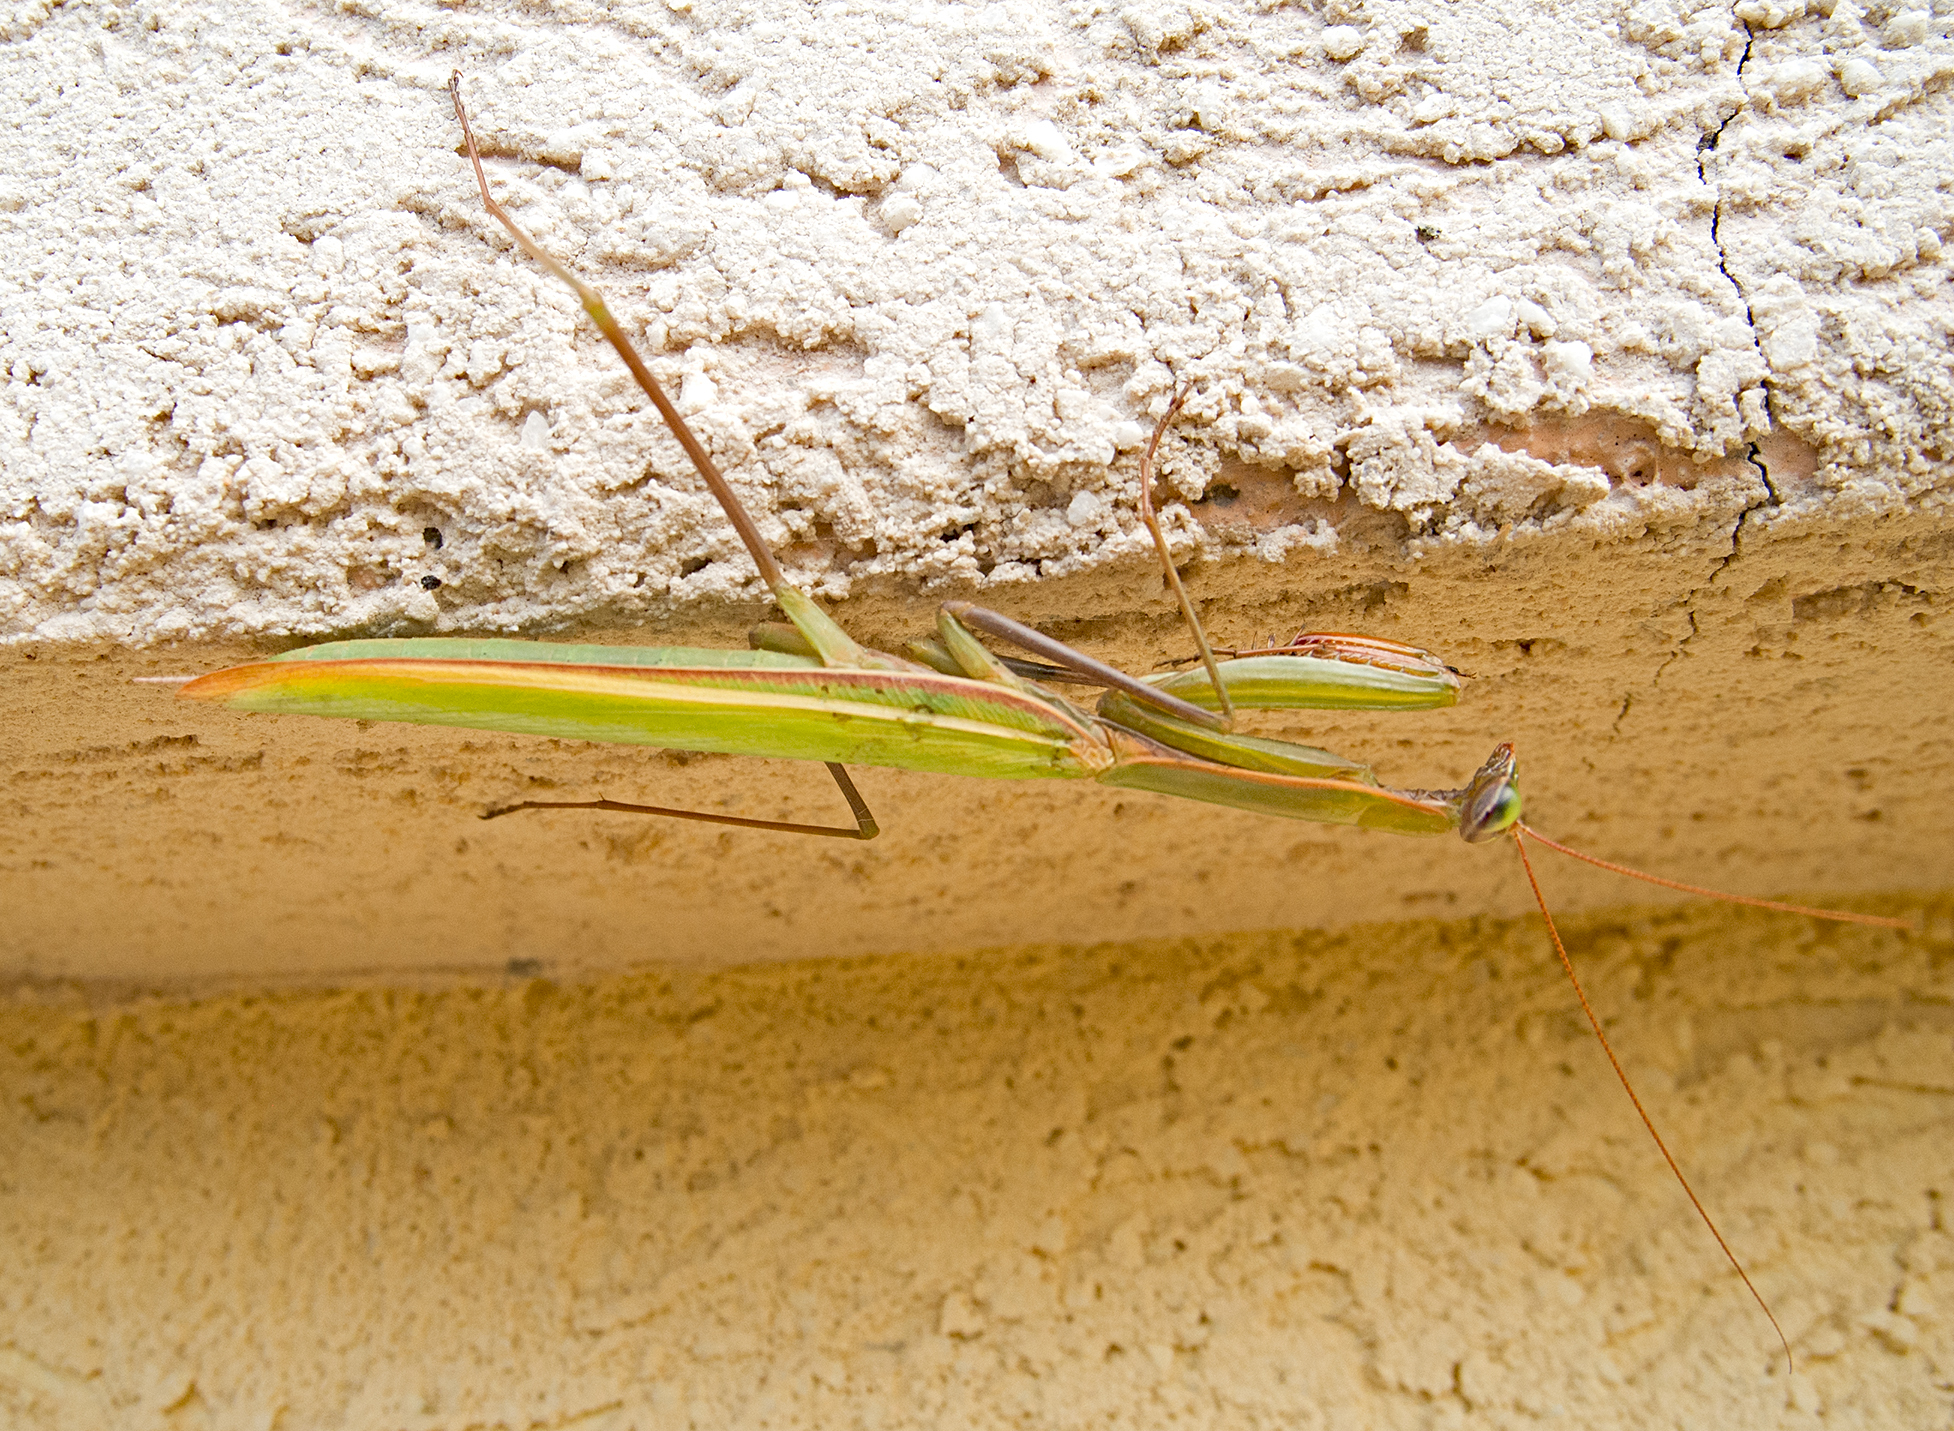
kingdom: Animalia
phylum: Arthropoda
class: Insecta
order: Mantodea
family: Mantidae
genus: Mantis
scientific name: Mantis religiosa
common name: Praying mantis
